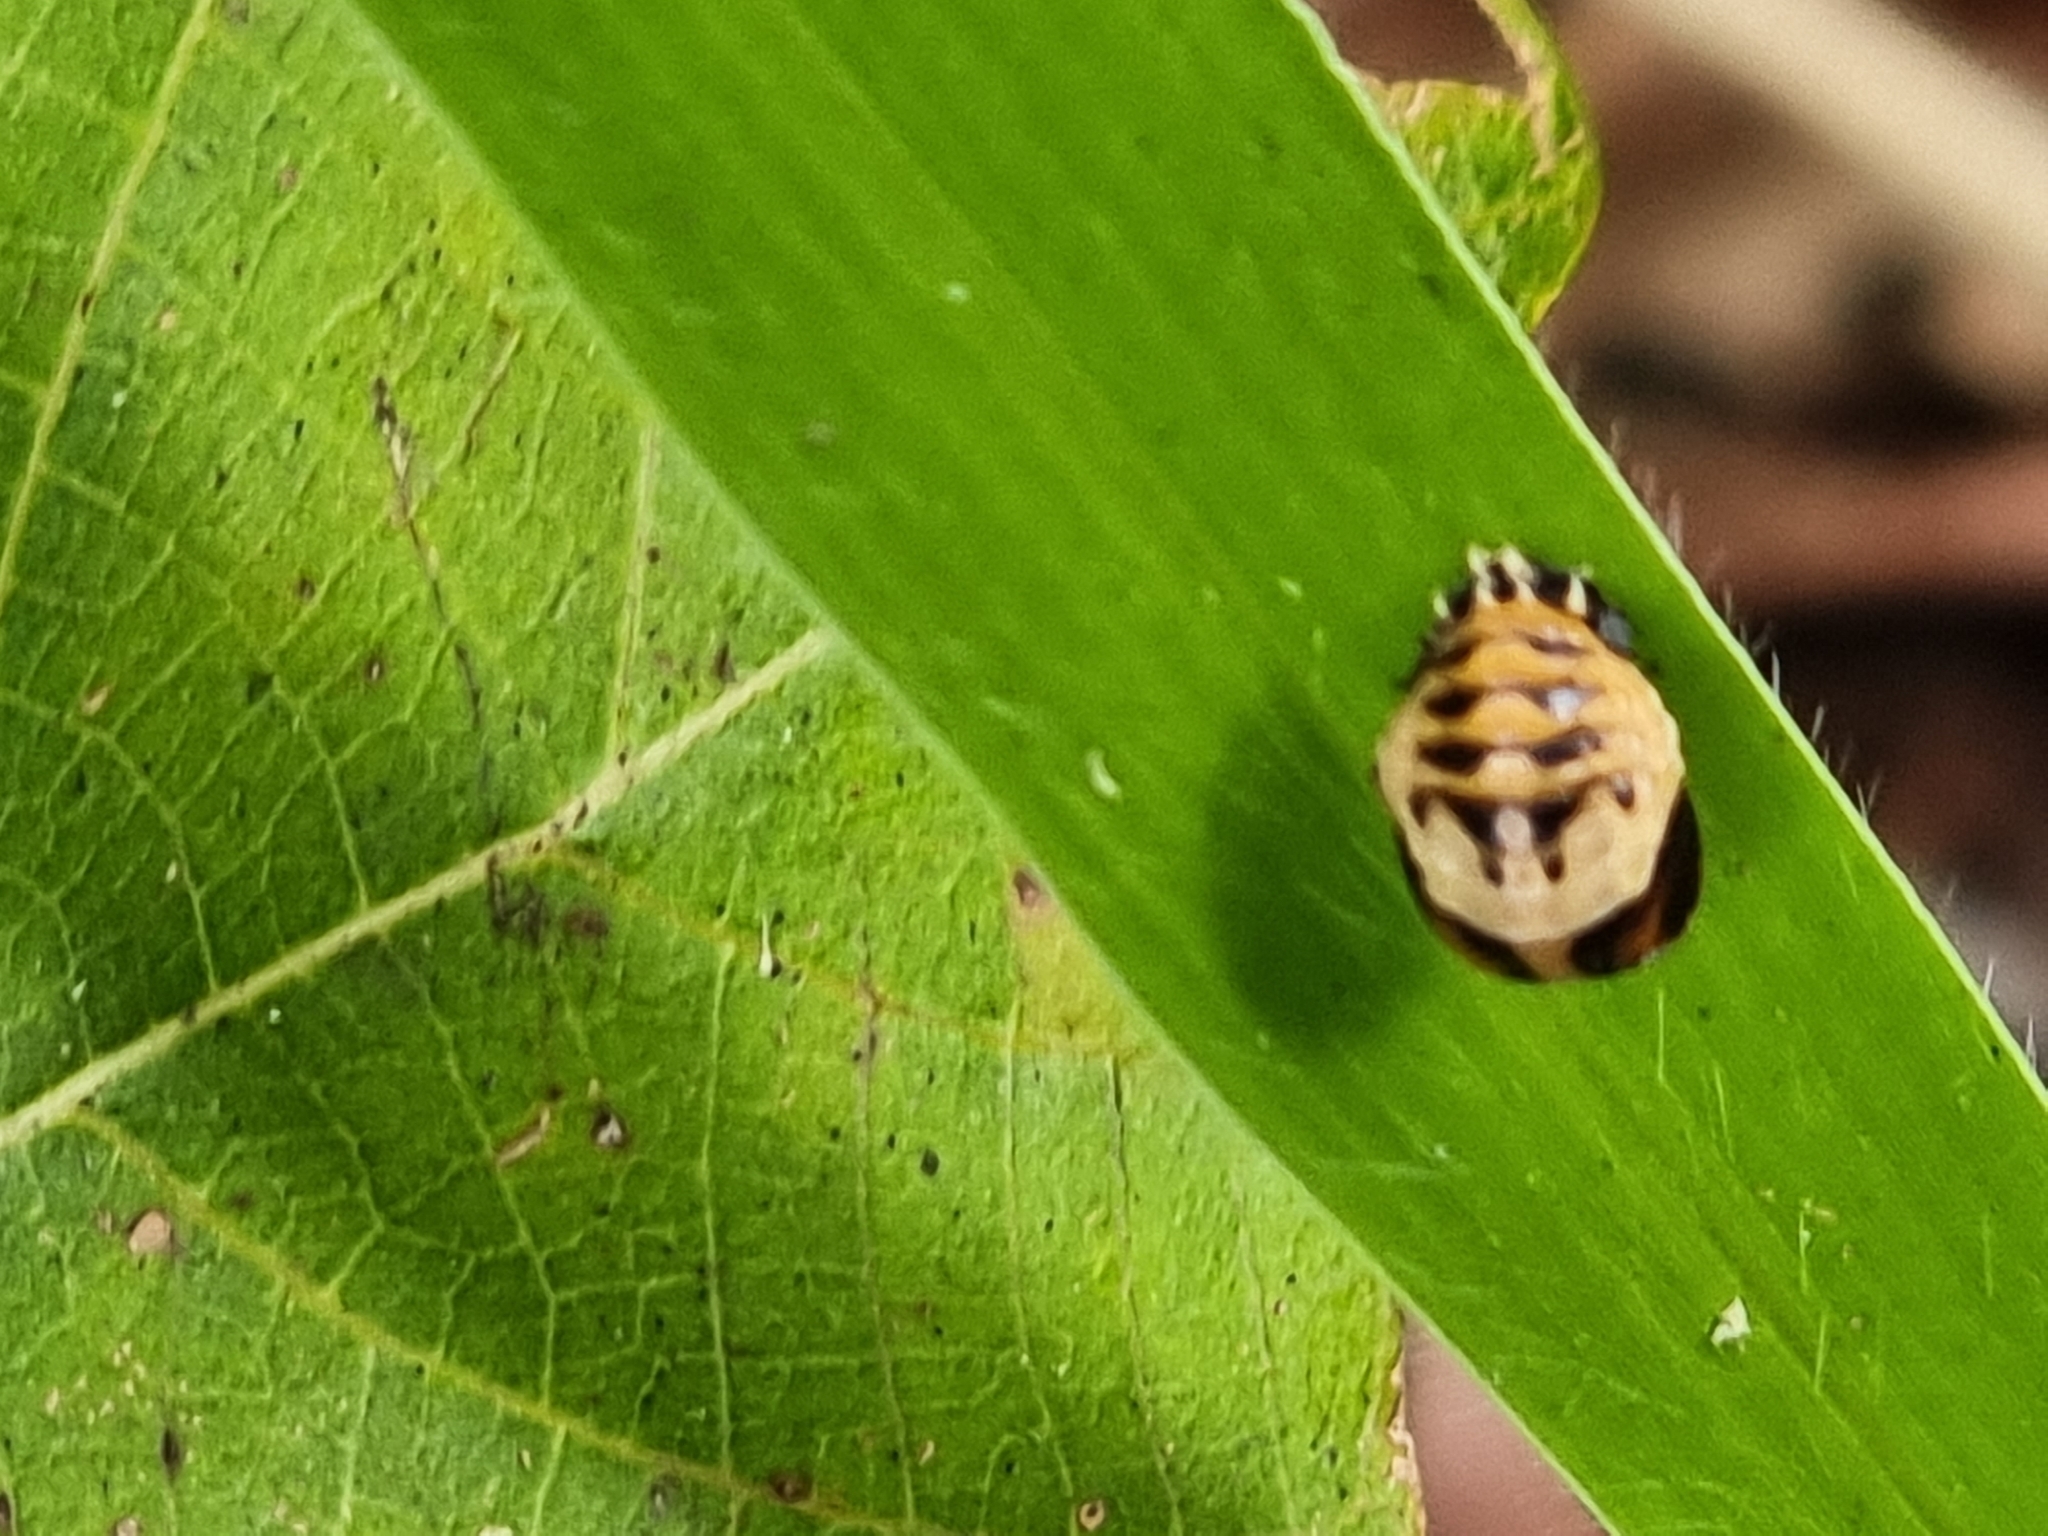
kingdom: Animalia
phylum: Arthropoda
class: Insecta
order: Coleoptera
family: Coccinellidae
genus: Harmonia
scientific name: Harmonia
